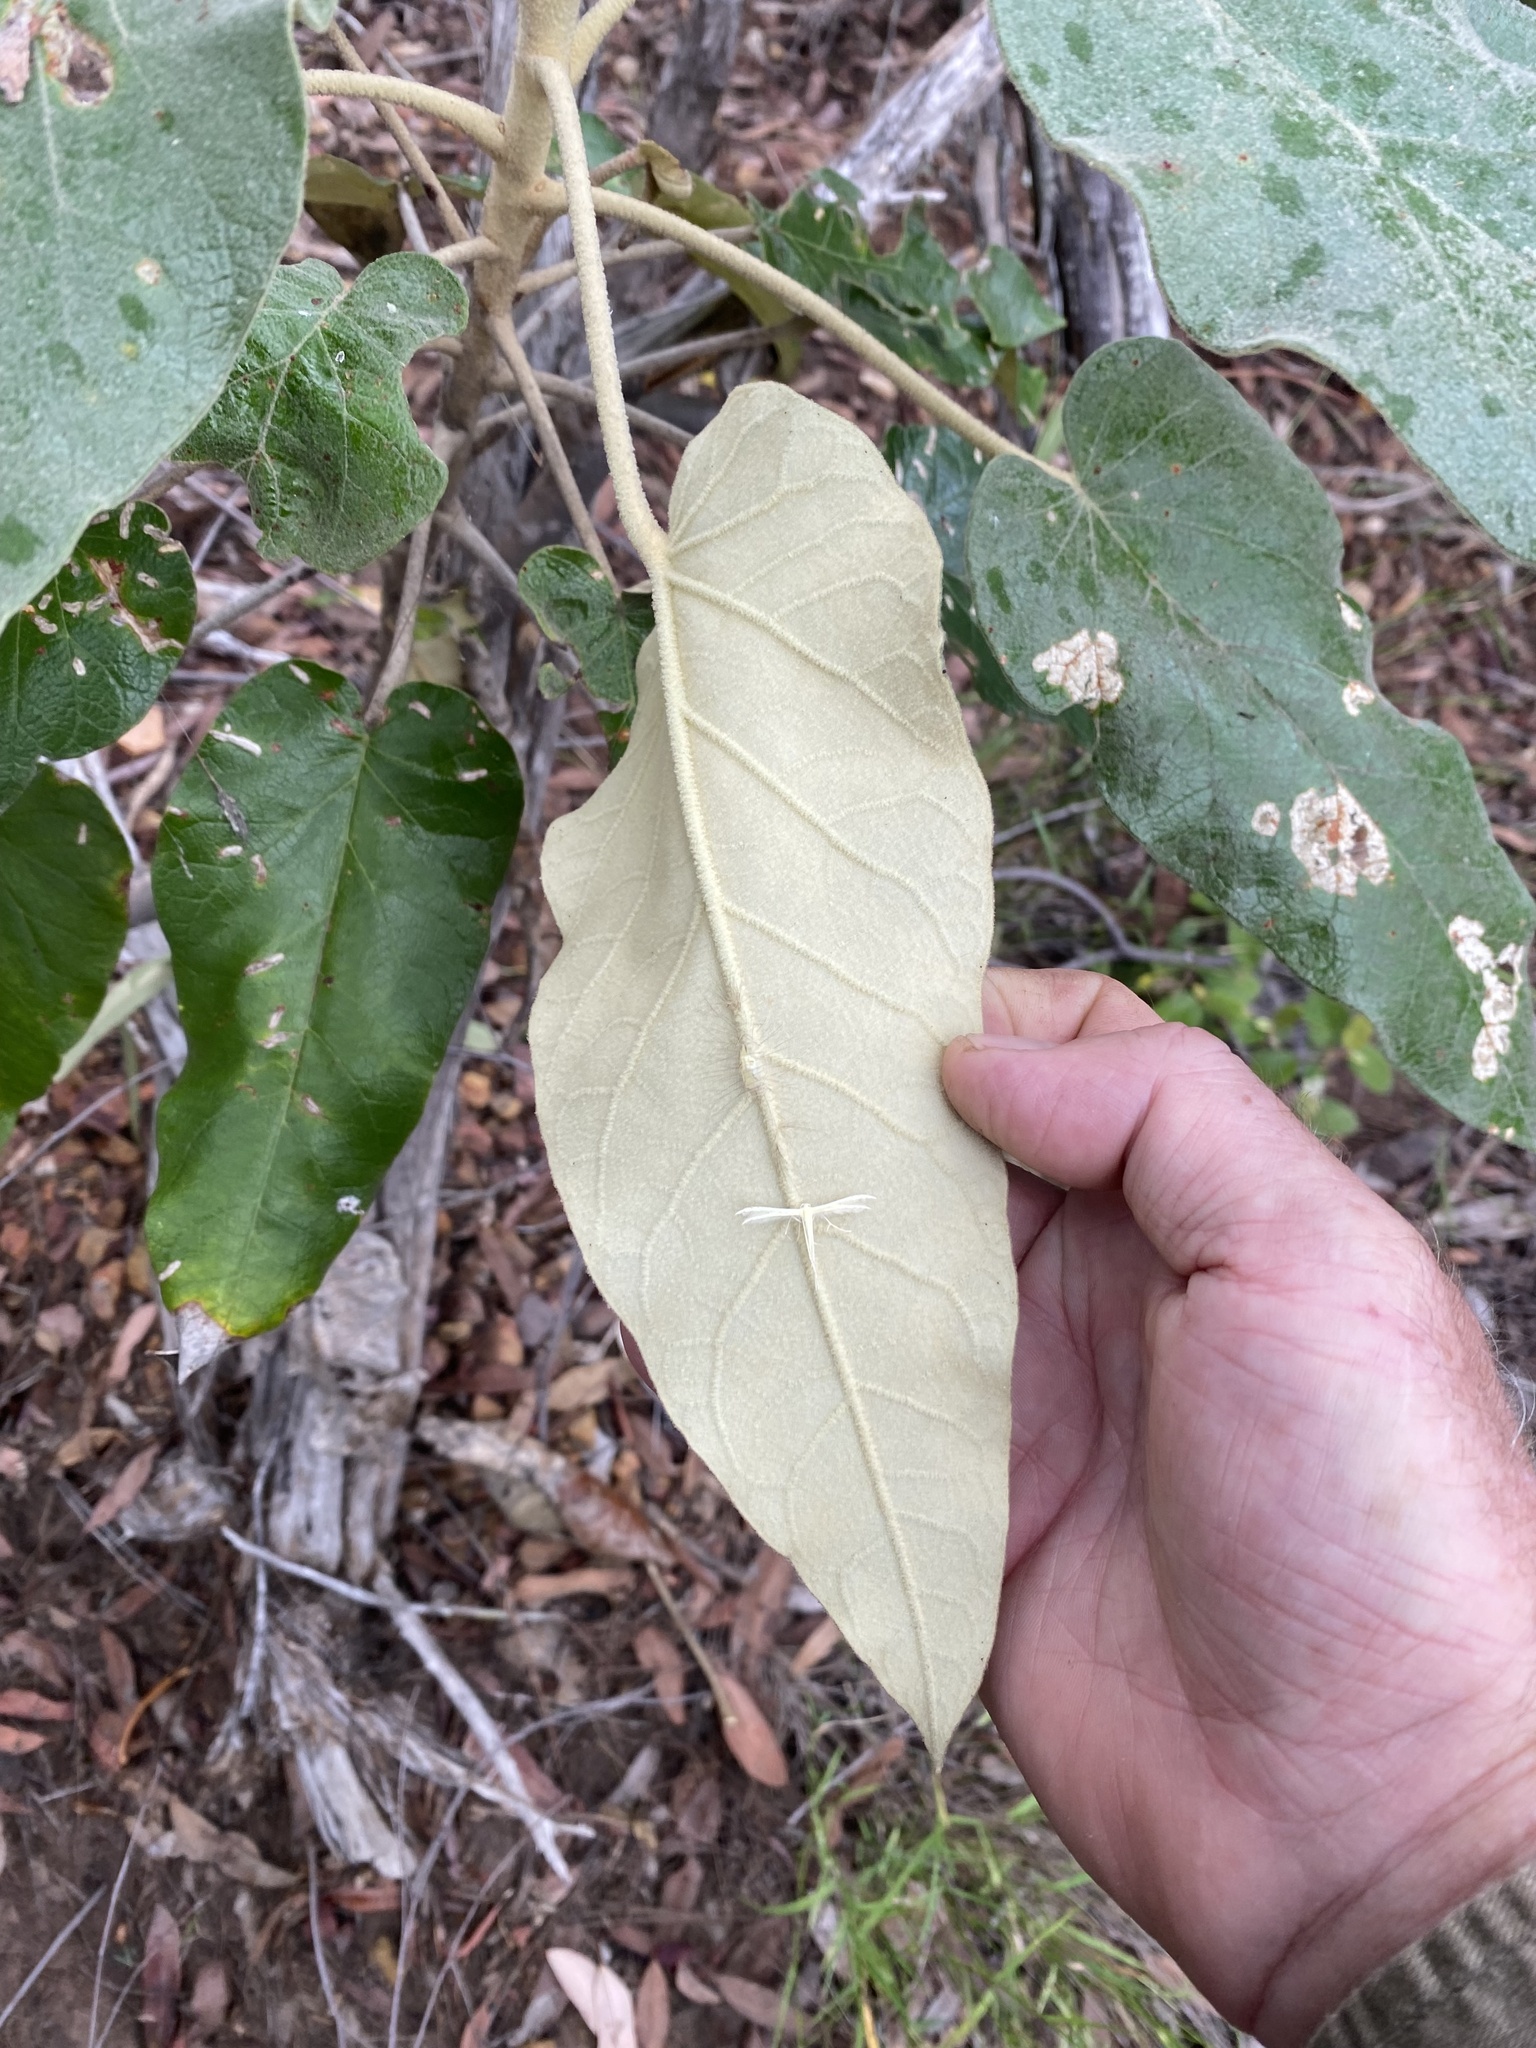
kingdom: Plantae
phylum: Tracheophyta
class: Magnoliopsida
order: Apiales
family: Araliaceae
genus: Astrotricha
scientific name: Astrotricha cordata
